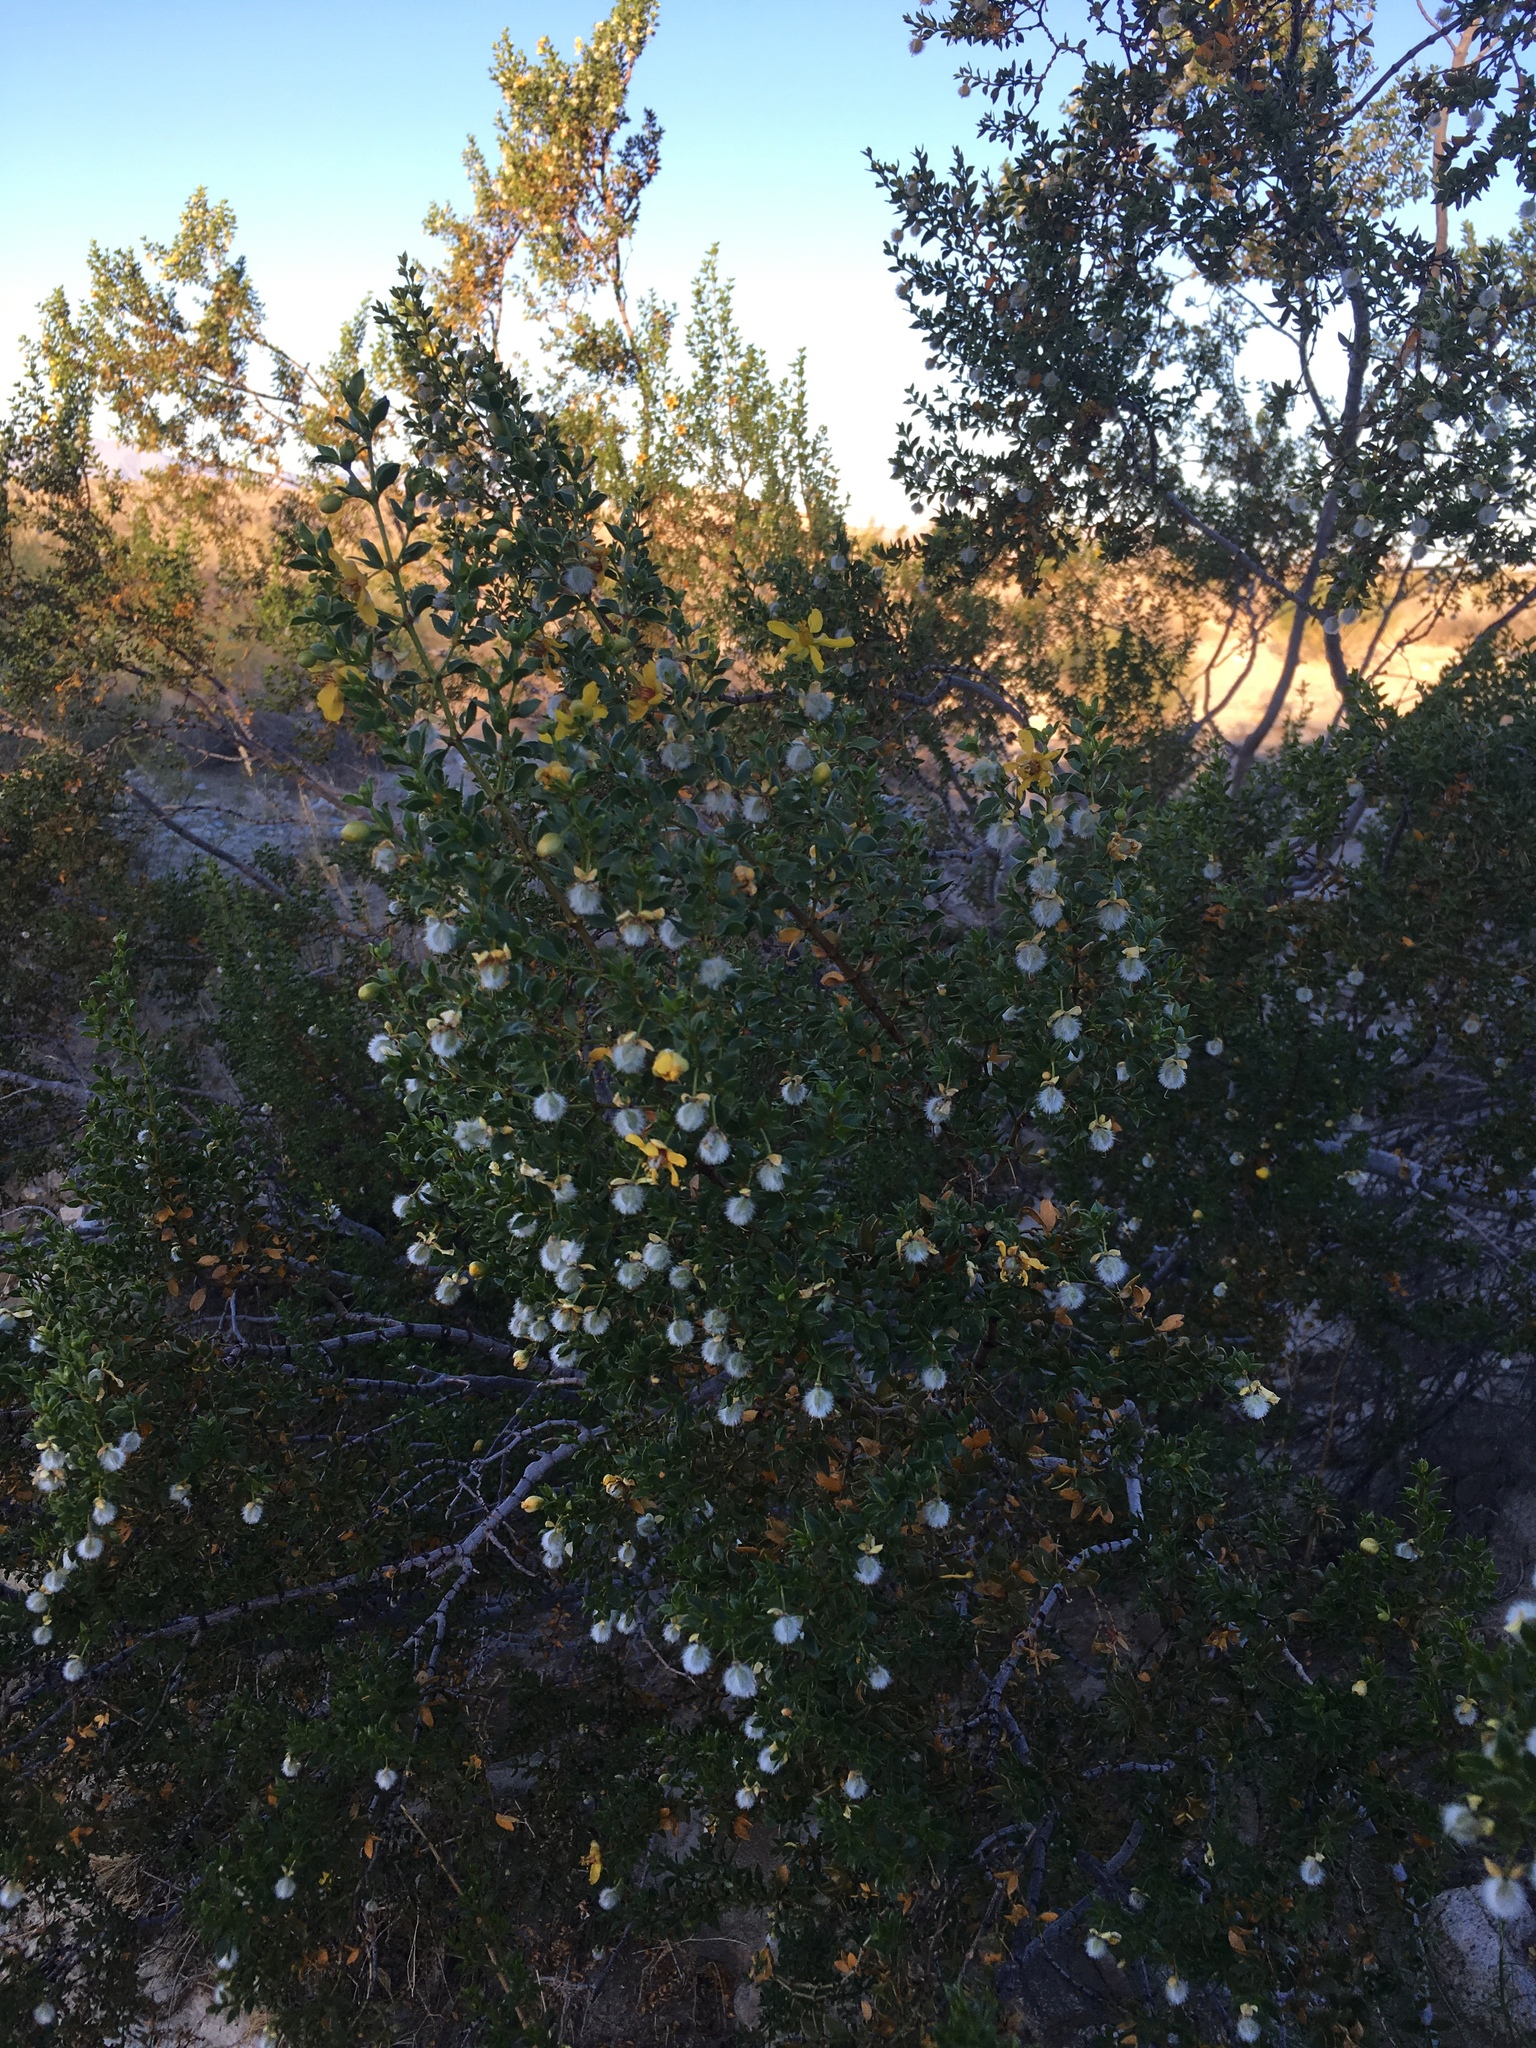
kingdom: Plantae
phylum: Tracheophyta
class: Magnoliopsida
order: Zygophyllales
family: Zygophyllaceae
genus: Larrea
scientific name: Larrea tridentata
